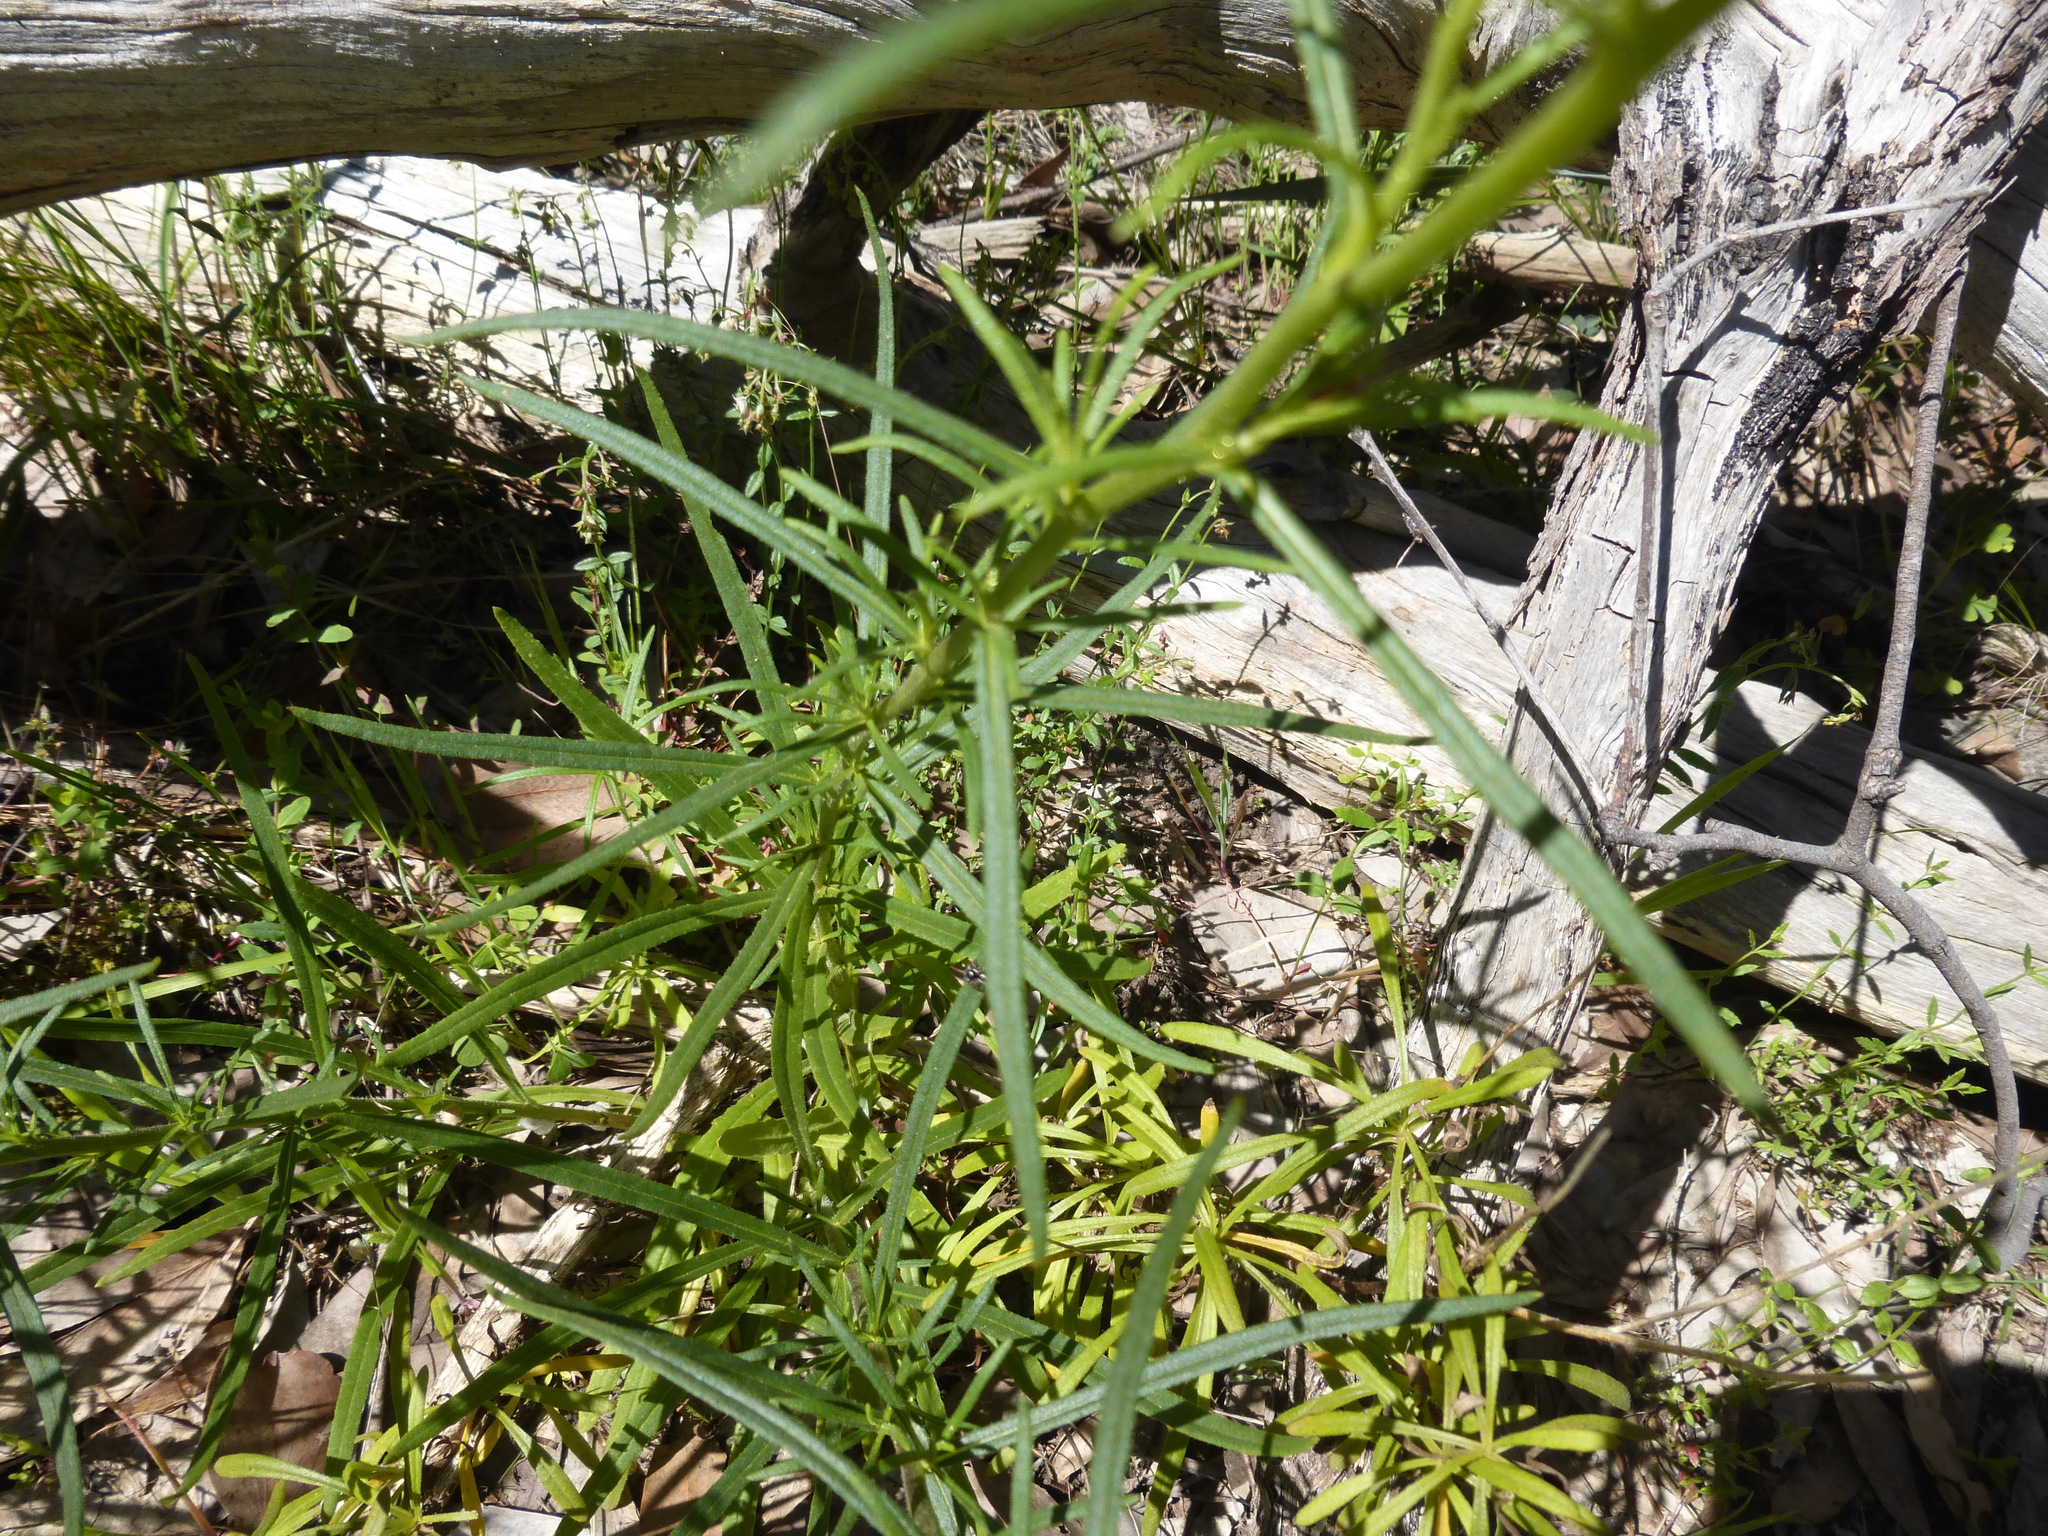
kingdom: Plantae
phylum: Tracheophyta
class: Magnoliopsida
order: Asterales
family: Asteraceae
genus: Xerochrysum
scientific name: Xerochrysum viscosum
